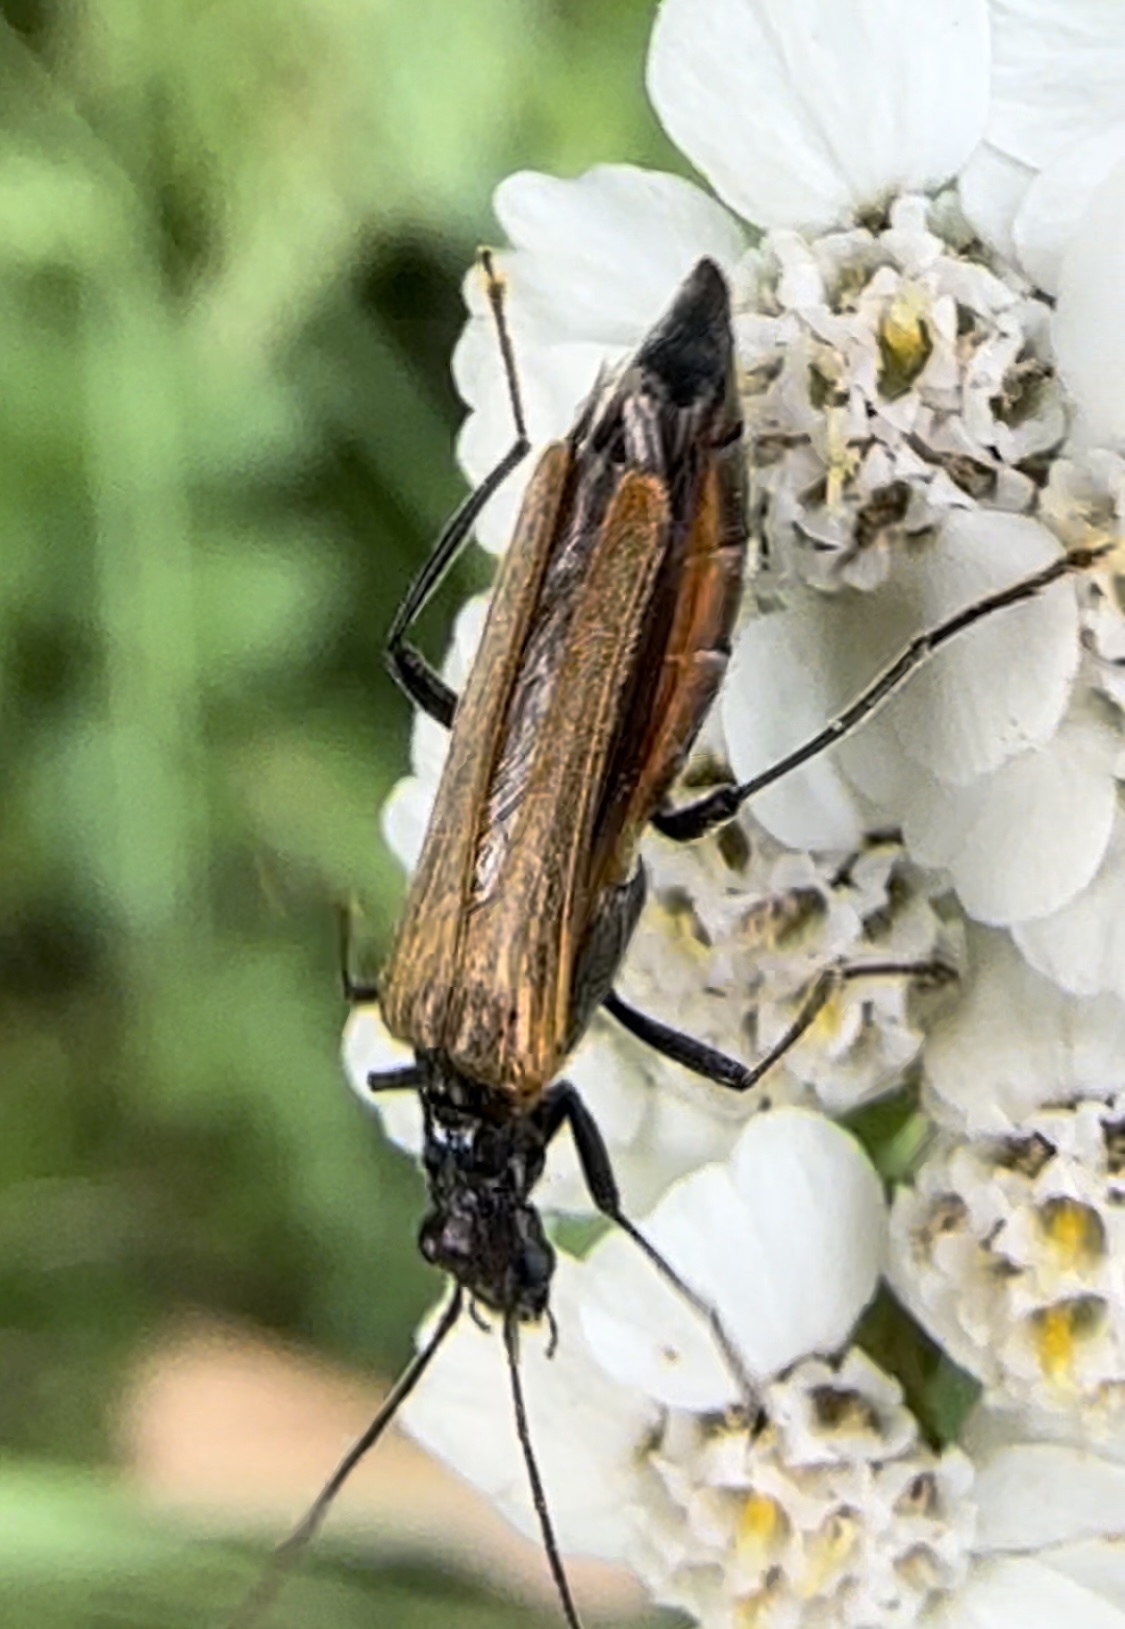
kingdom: Animalia
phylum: Arthropoda
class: Insecta
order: Coleoptera
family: Oedemeridae
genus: Oedemera
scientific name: Oedemera femorata
